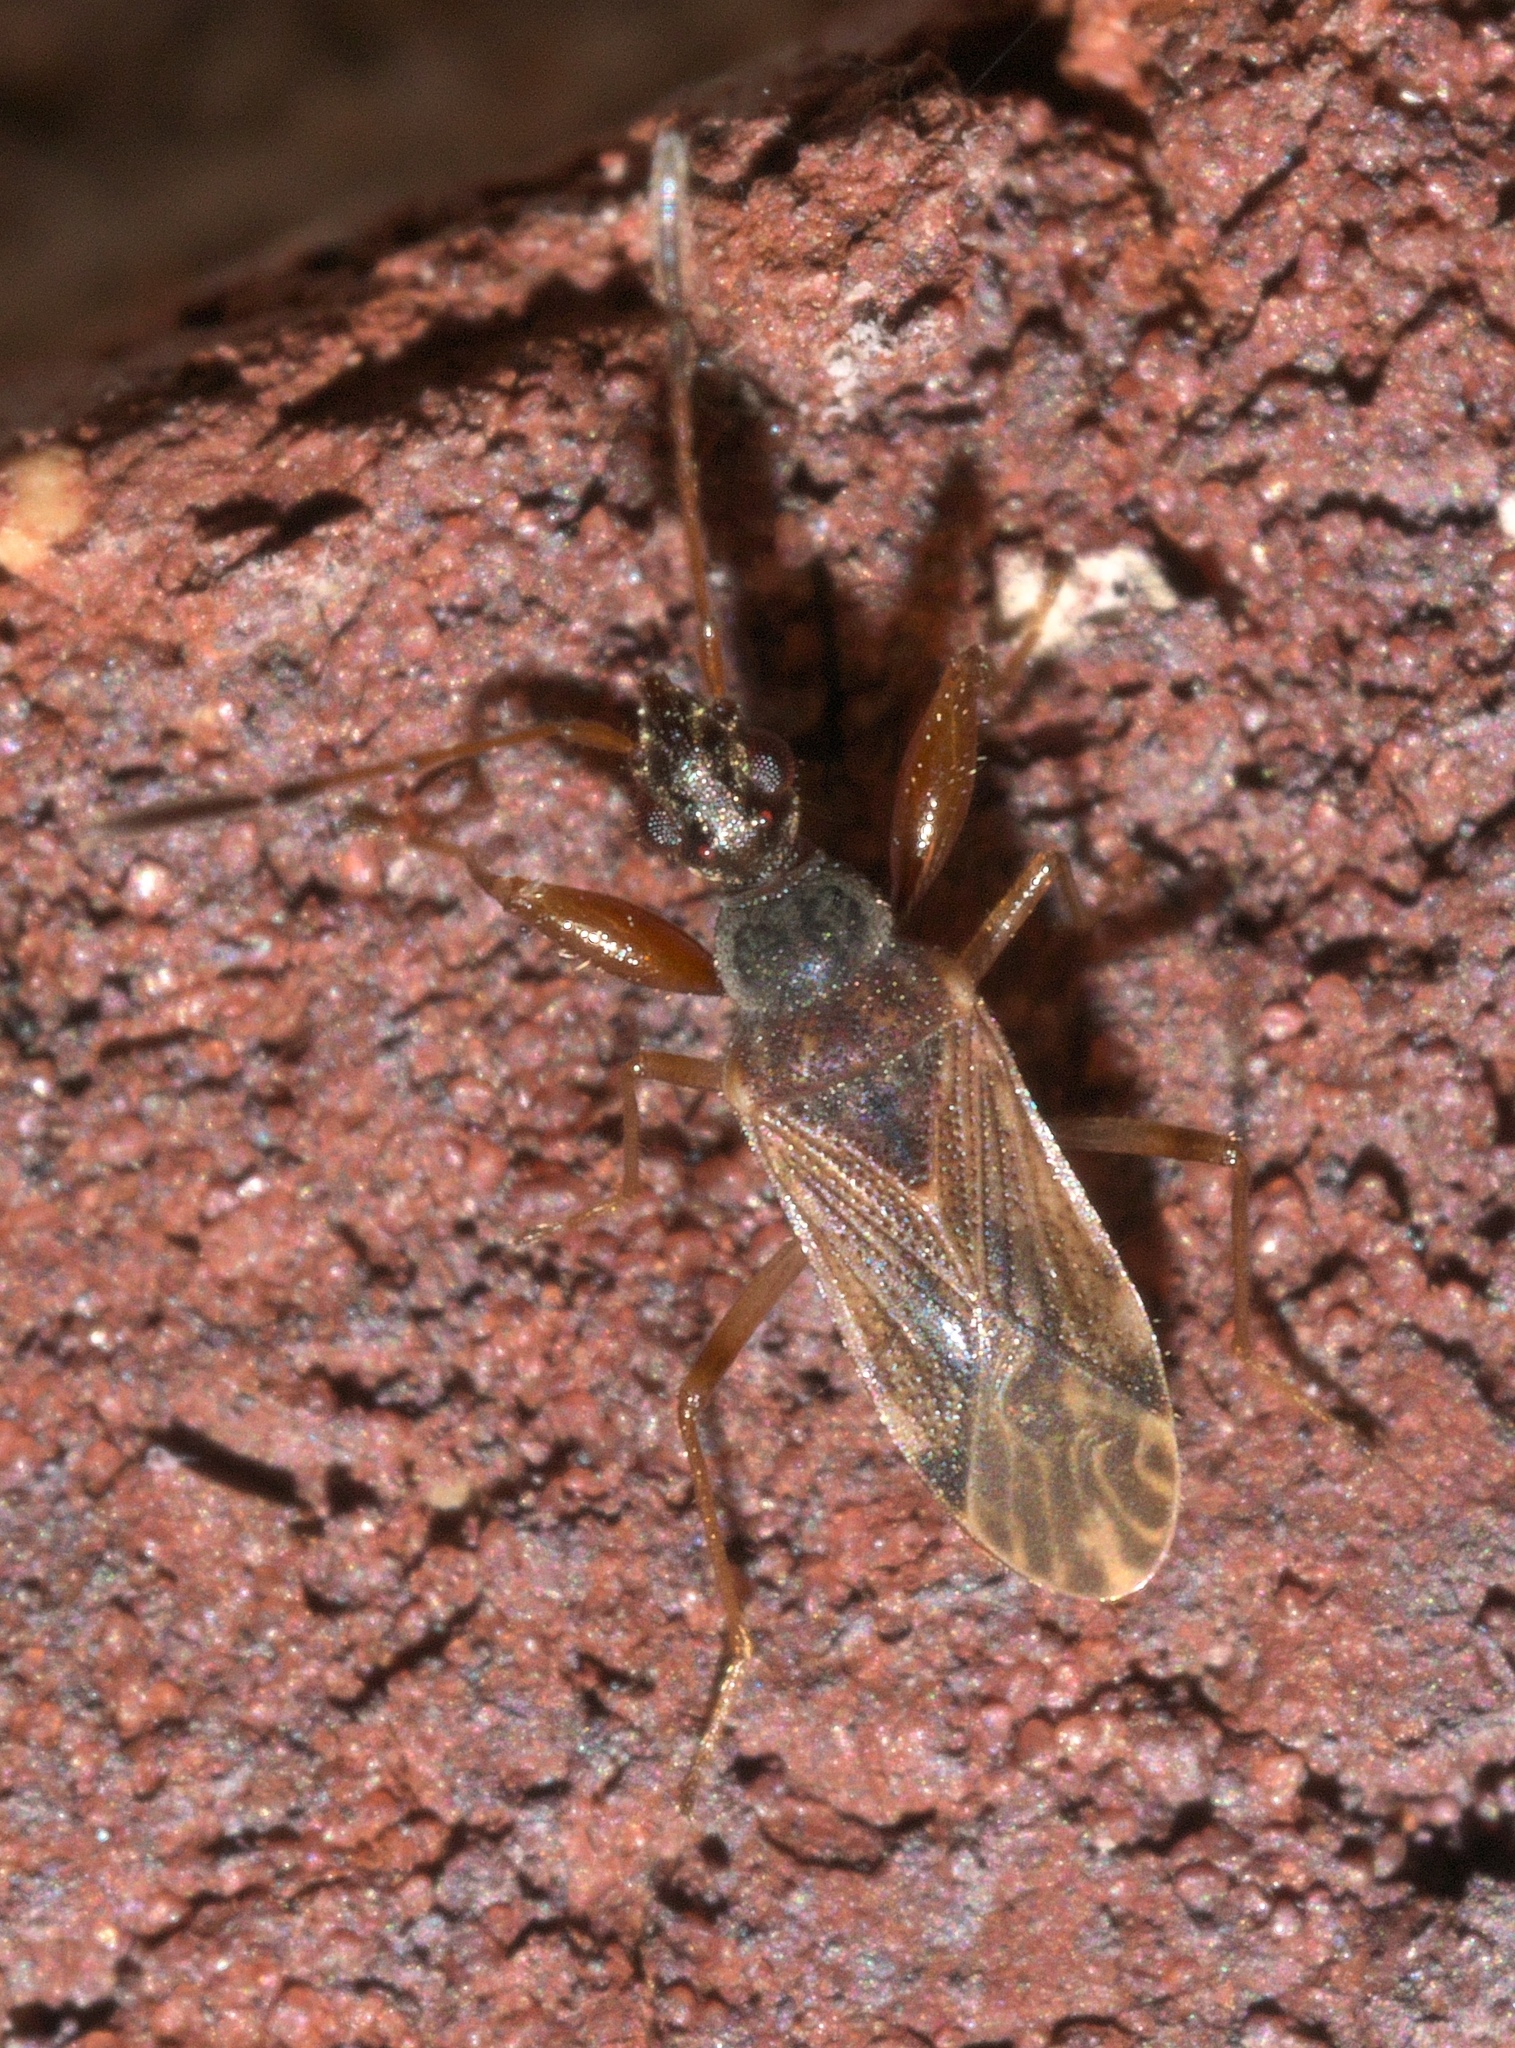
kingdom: Animalia
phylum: Arthropoda
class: Insecta
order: Hemiptera
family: Rhyparochromidae
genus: Heraeus
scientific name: Heraeus plebejus
